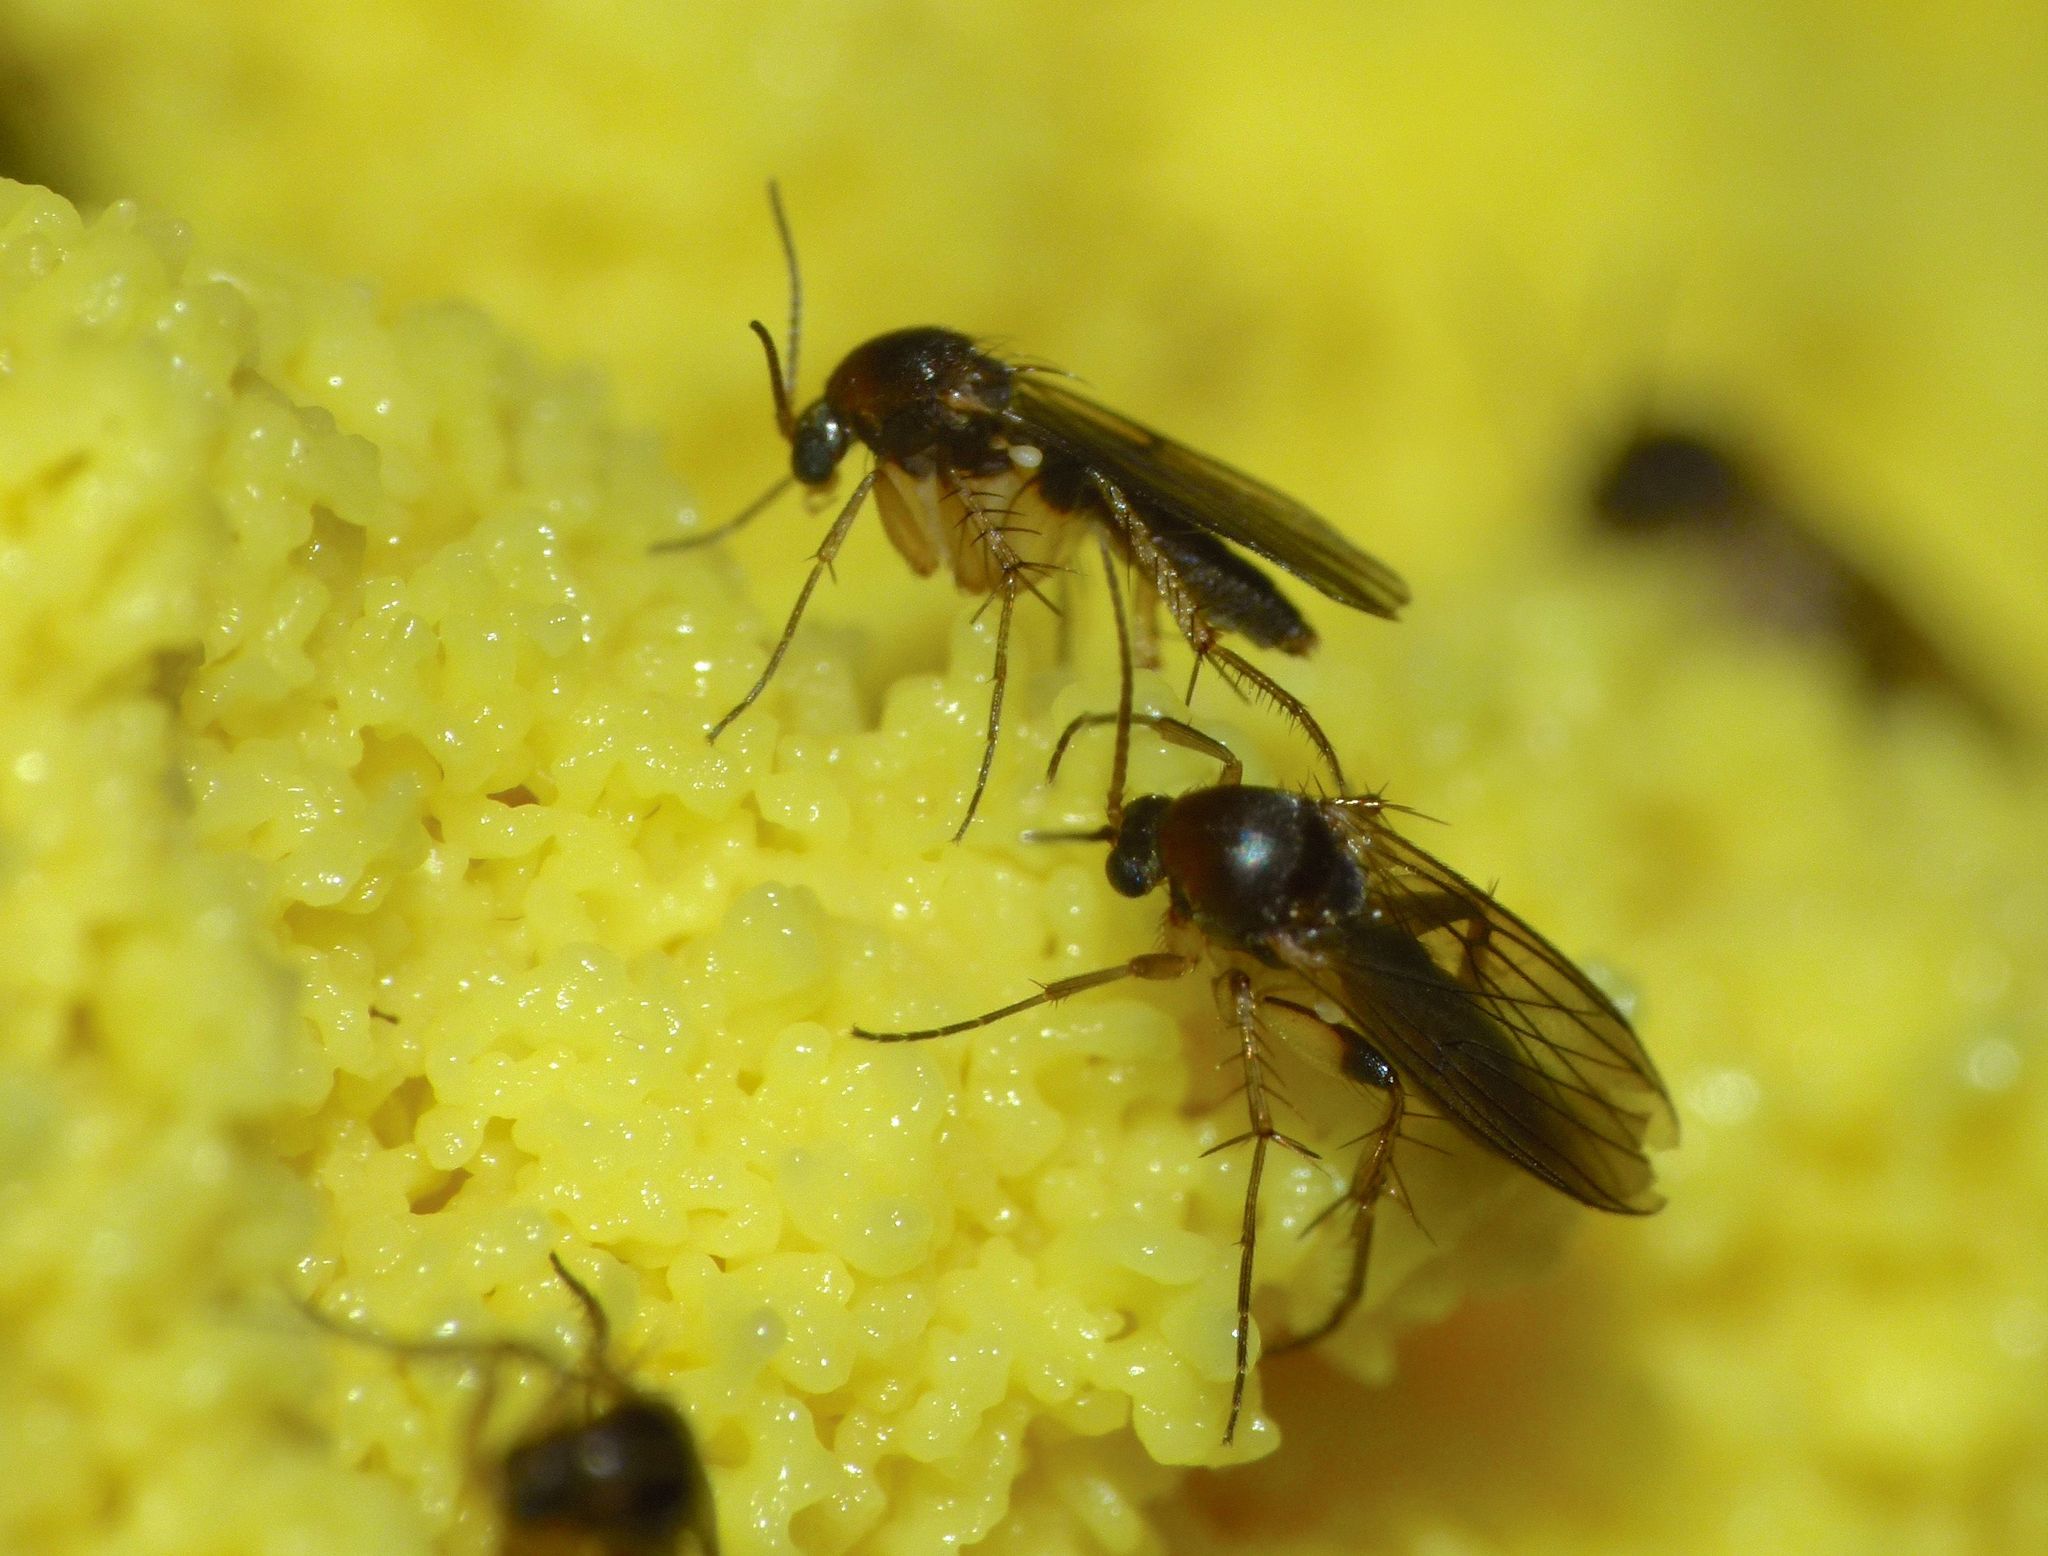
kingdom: Animalia
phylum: Arthropoda
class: Insecta
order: Diptera
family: Mycetophilidae
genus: Platurocypta
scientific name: Platurocypta
